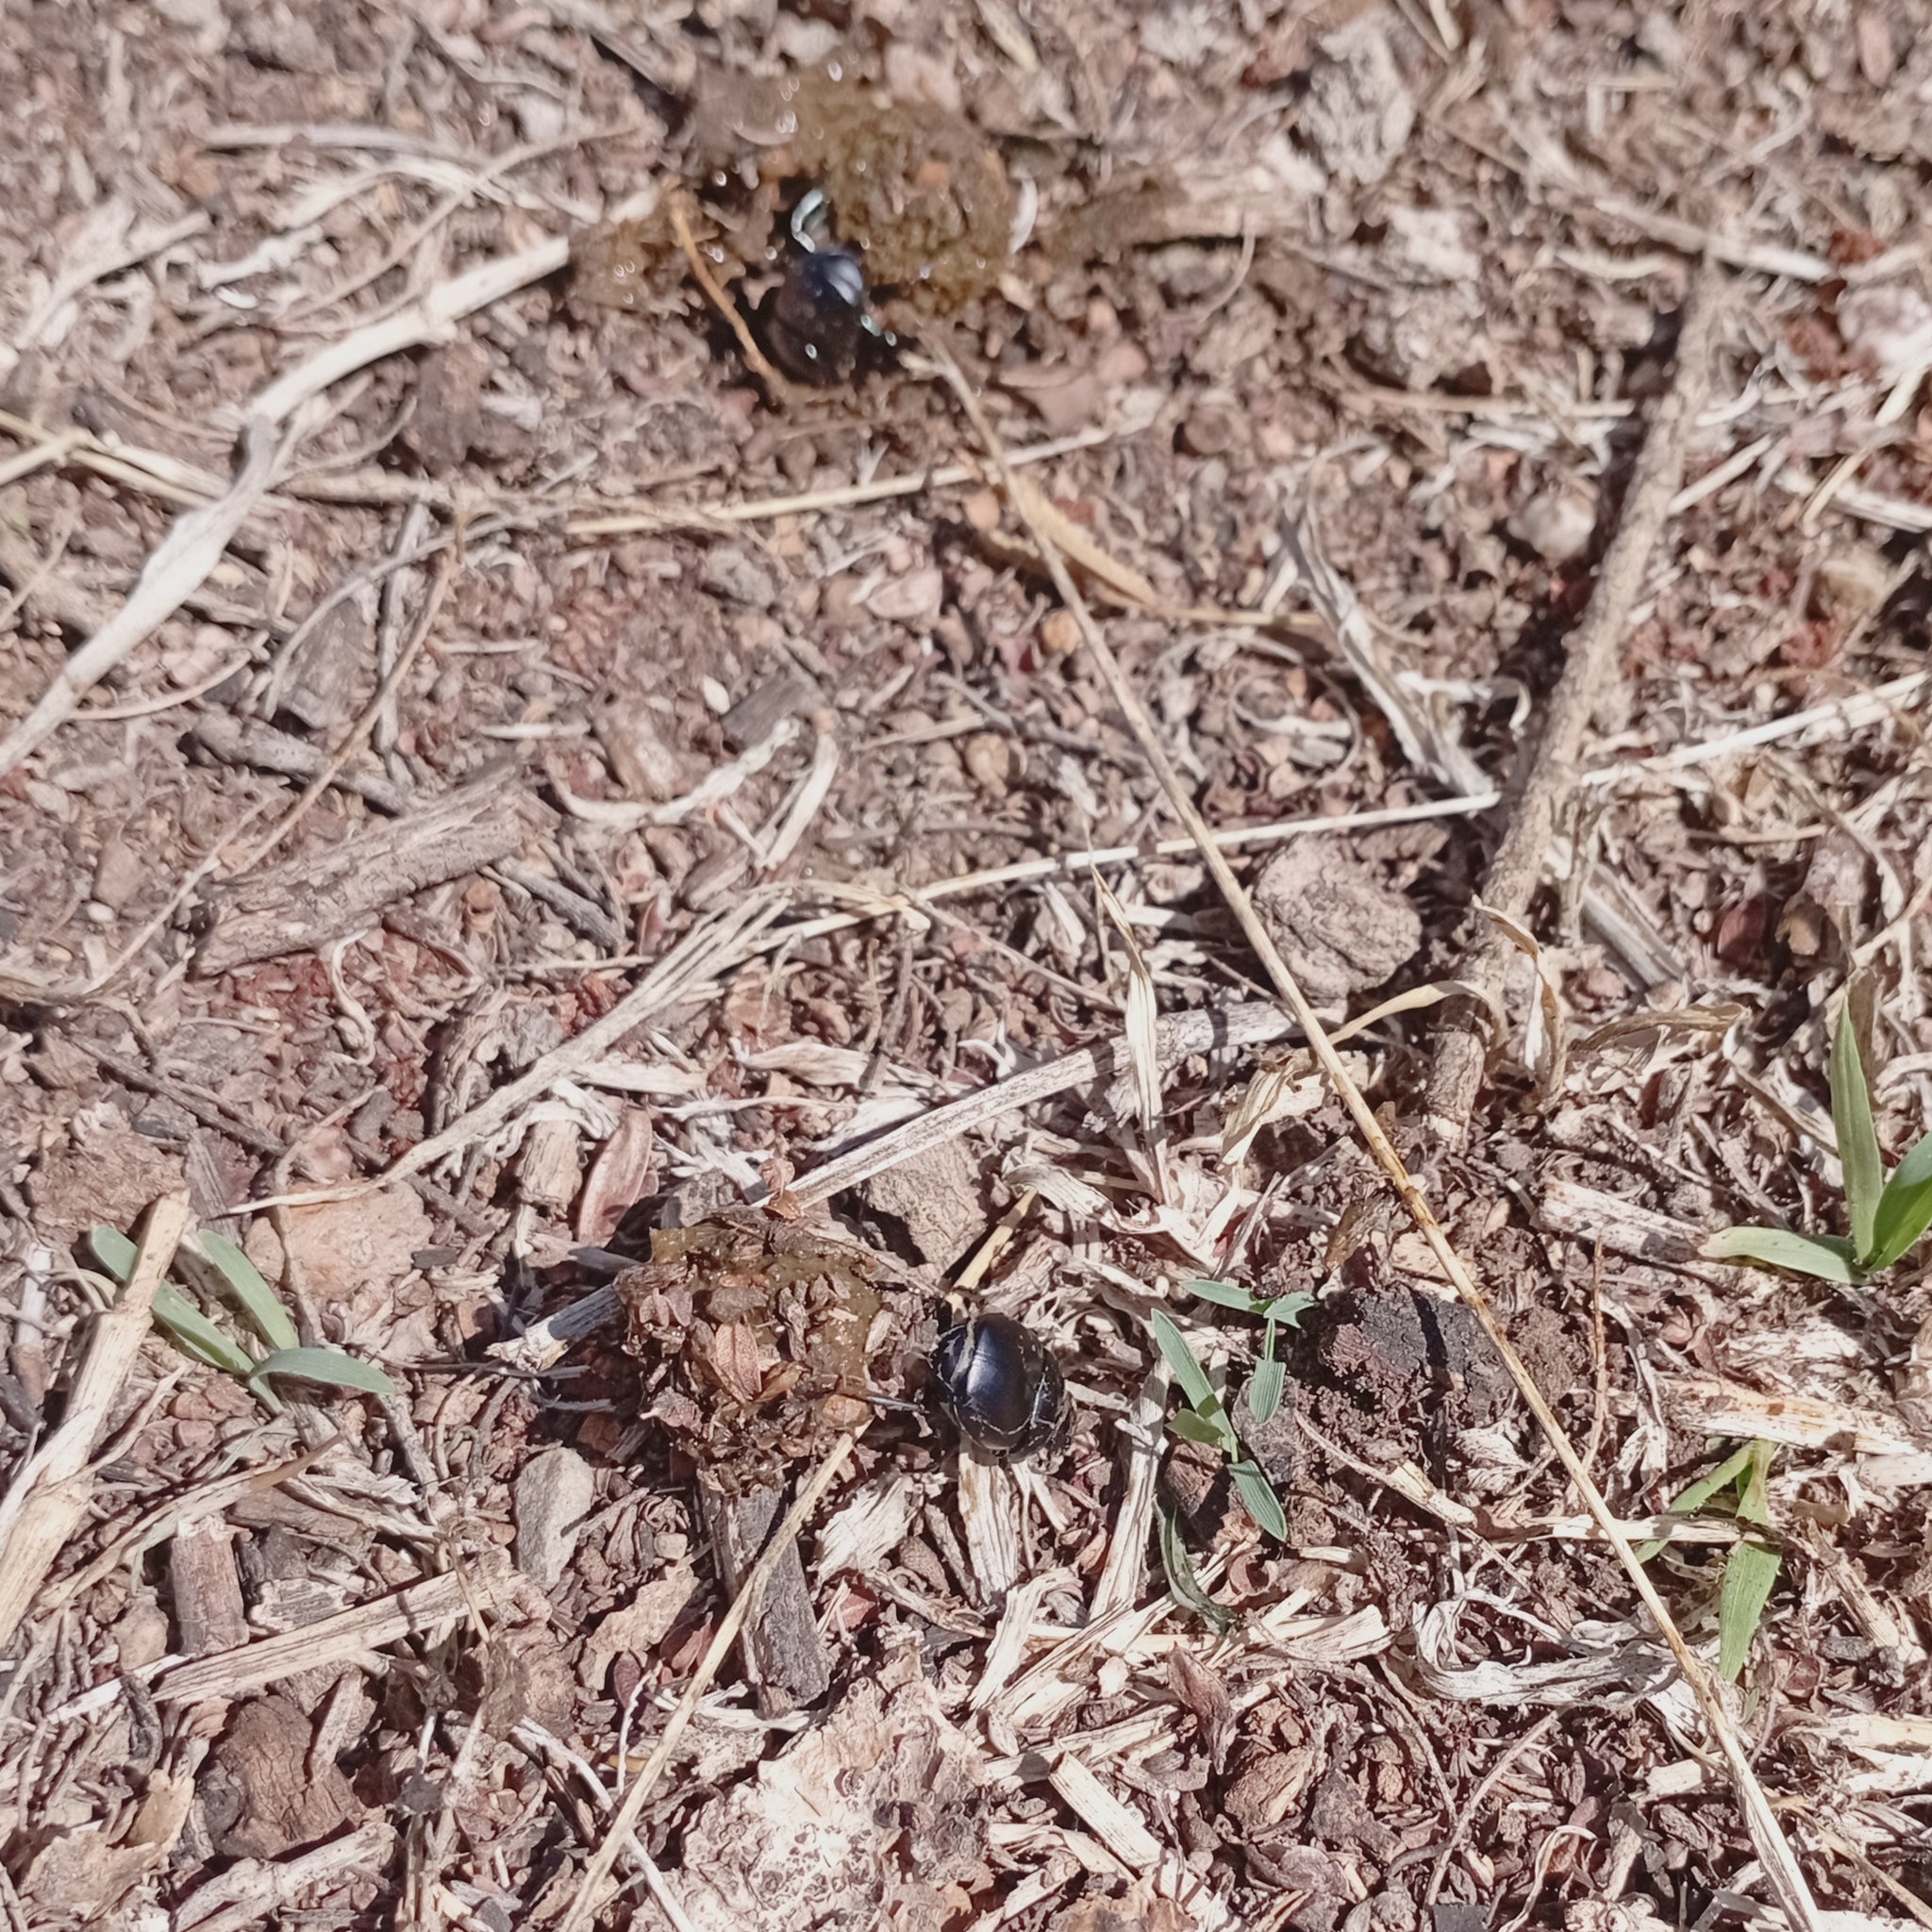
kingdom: Animalia
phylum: Arthropoda
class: Insecta
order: Coleoptera
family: Scarabaeidae
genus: Canthon
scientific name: Canthon humectus
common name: Tumblebug
